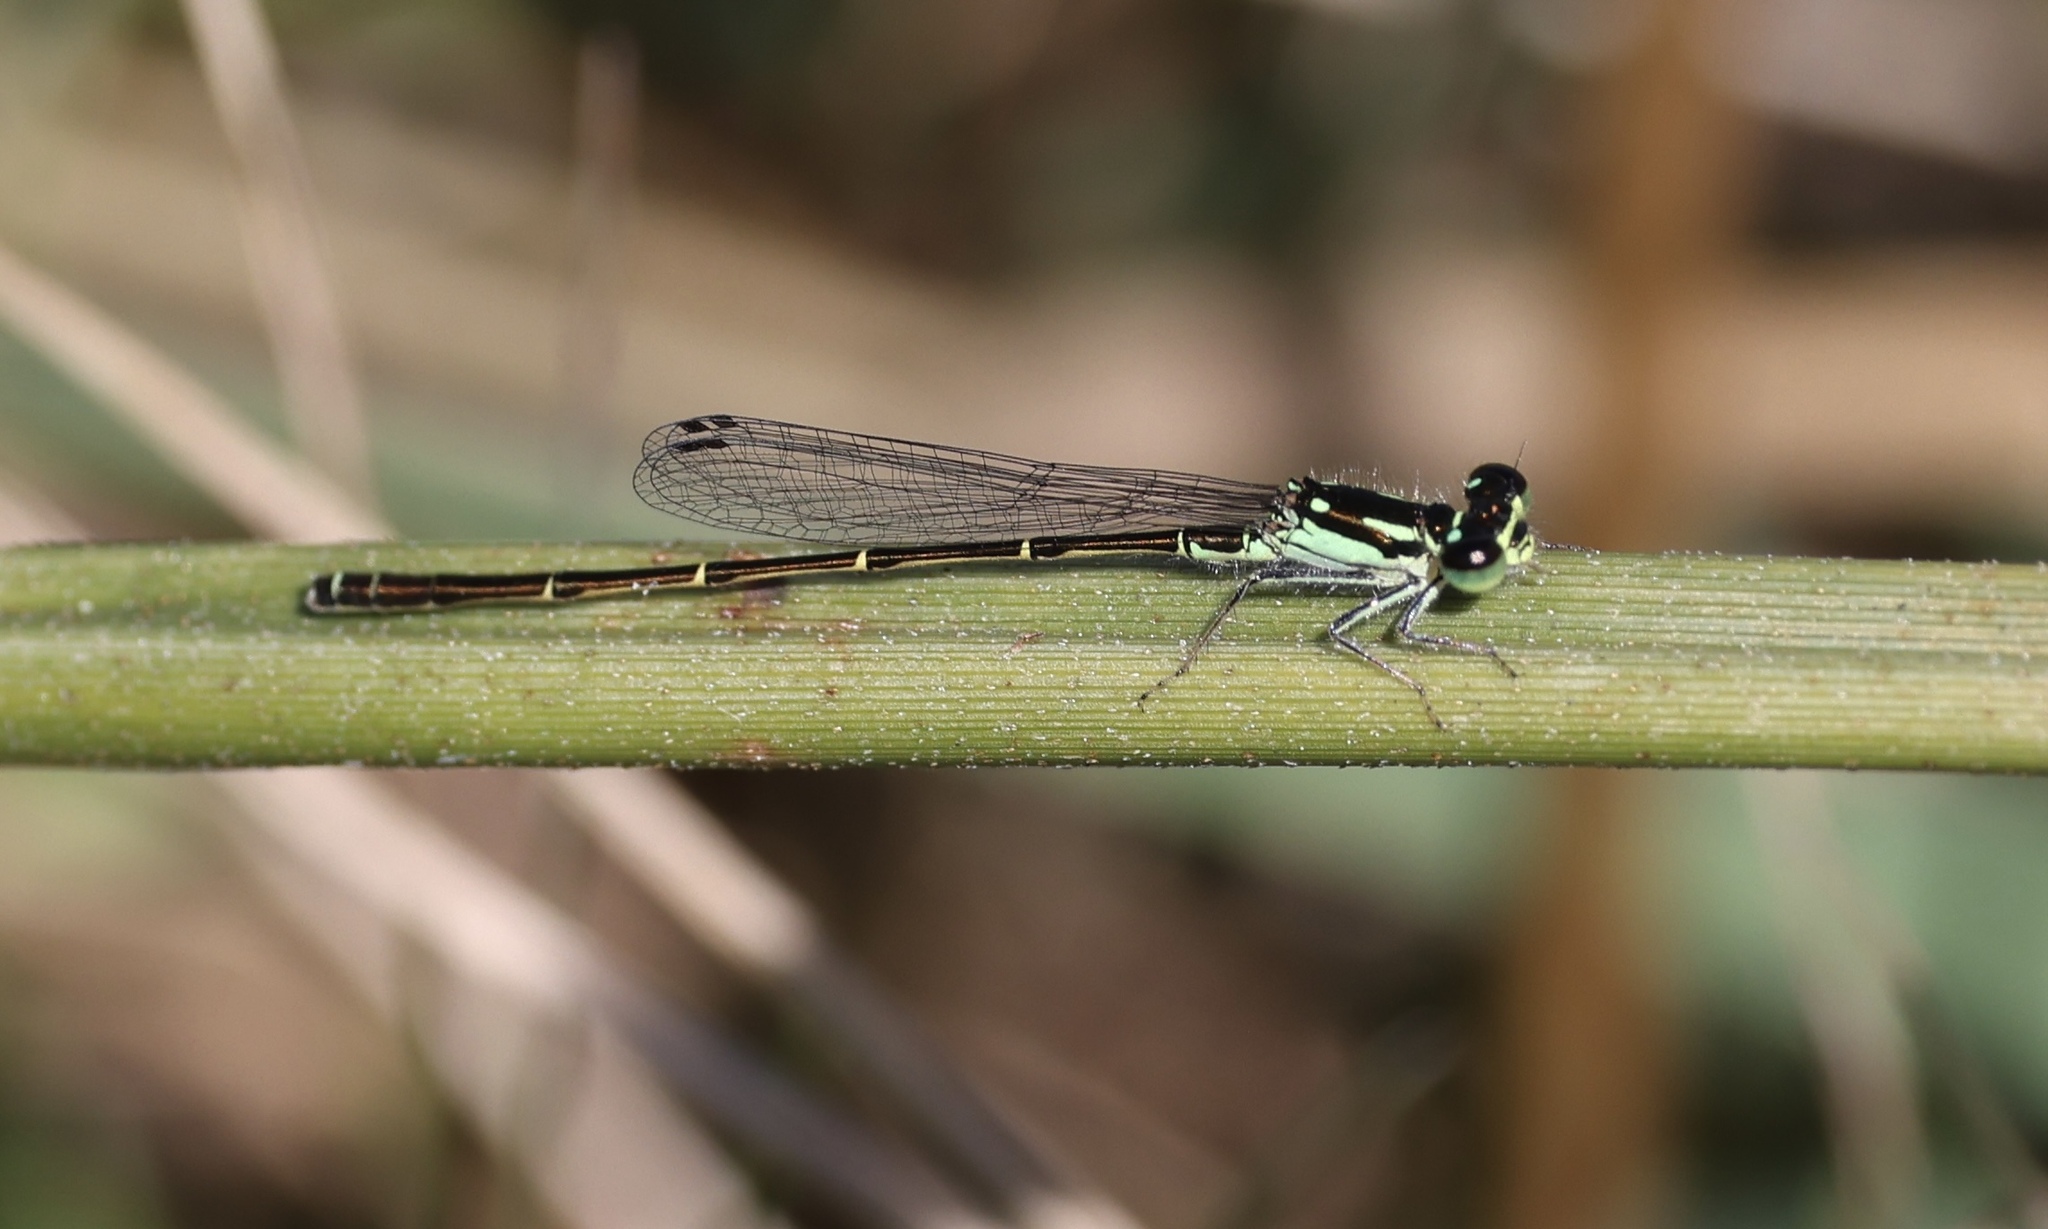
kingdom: Animalia
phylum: Arthropoda
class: Insecta
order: Odonata
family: Coenagrionidae
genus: Ischnura
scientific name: Ischnura posita
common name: Fragile forktail
